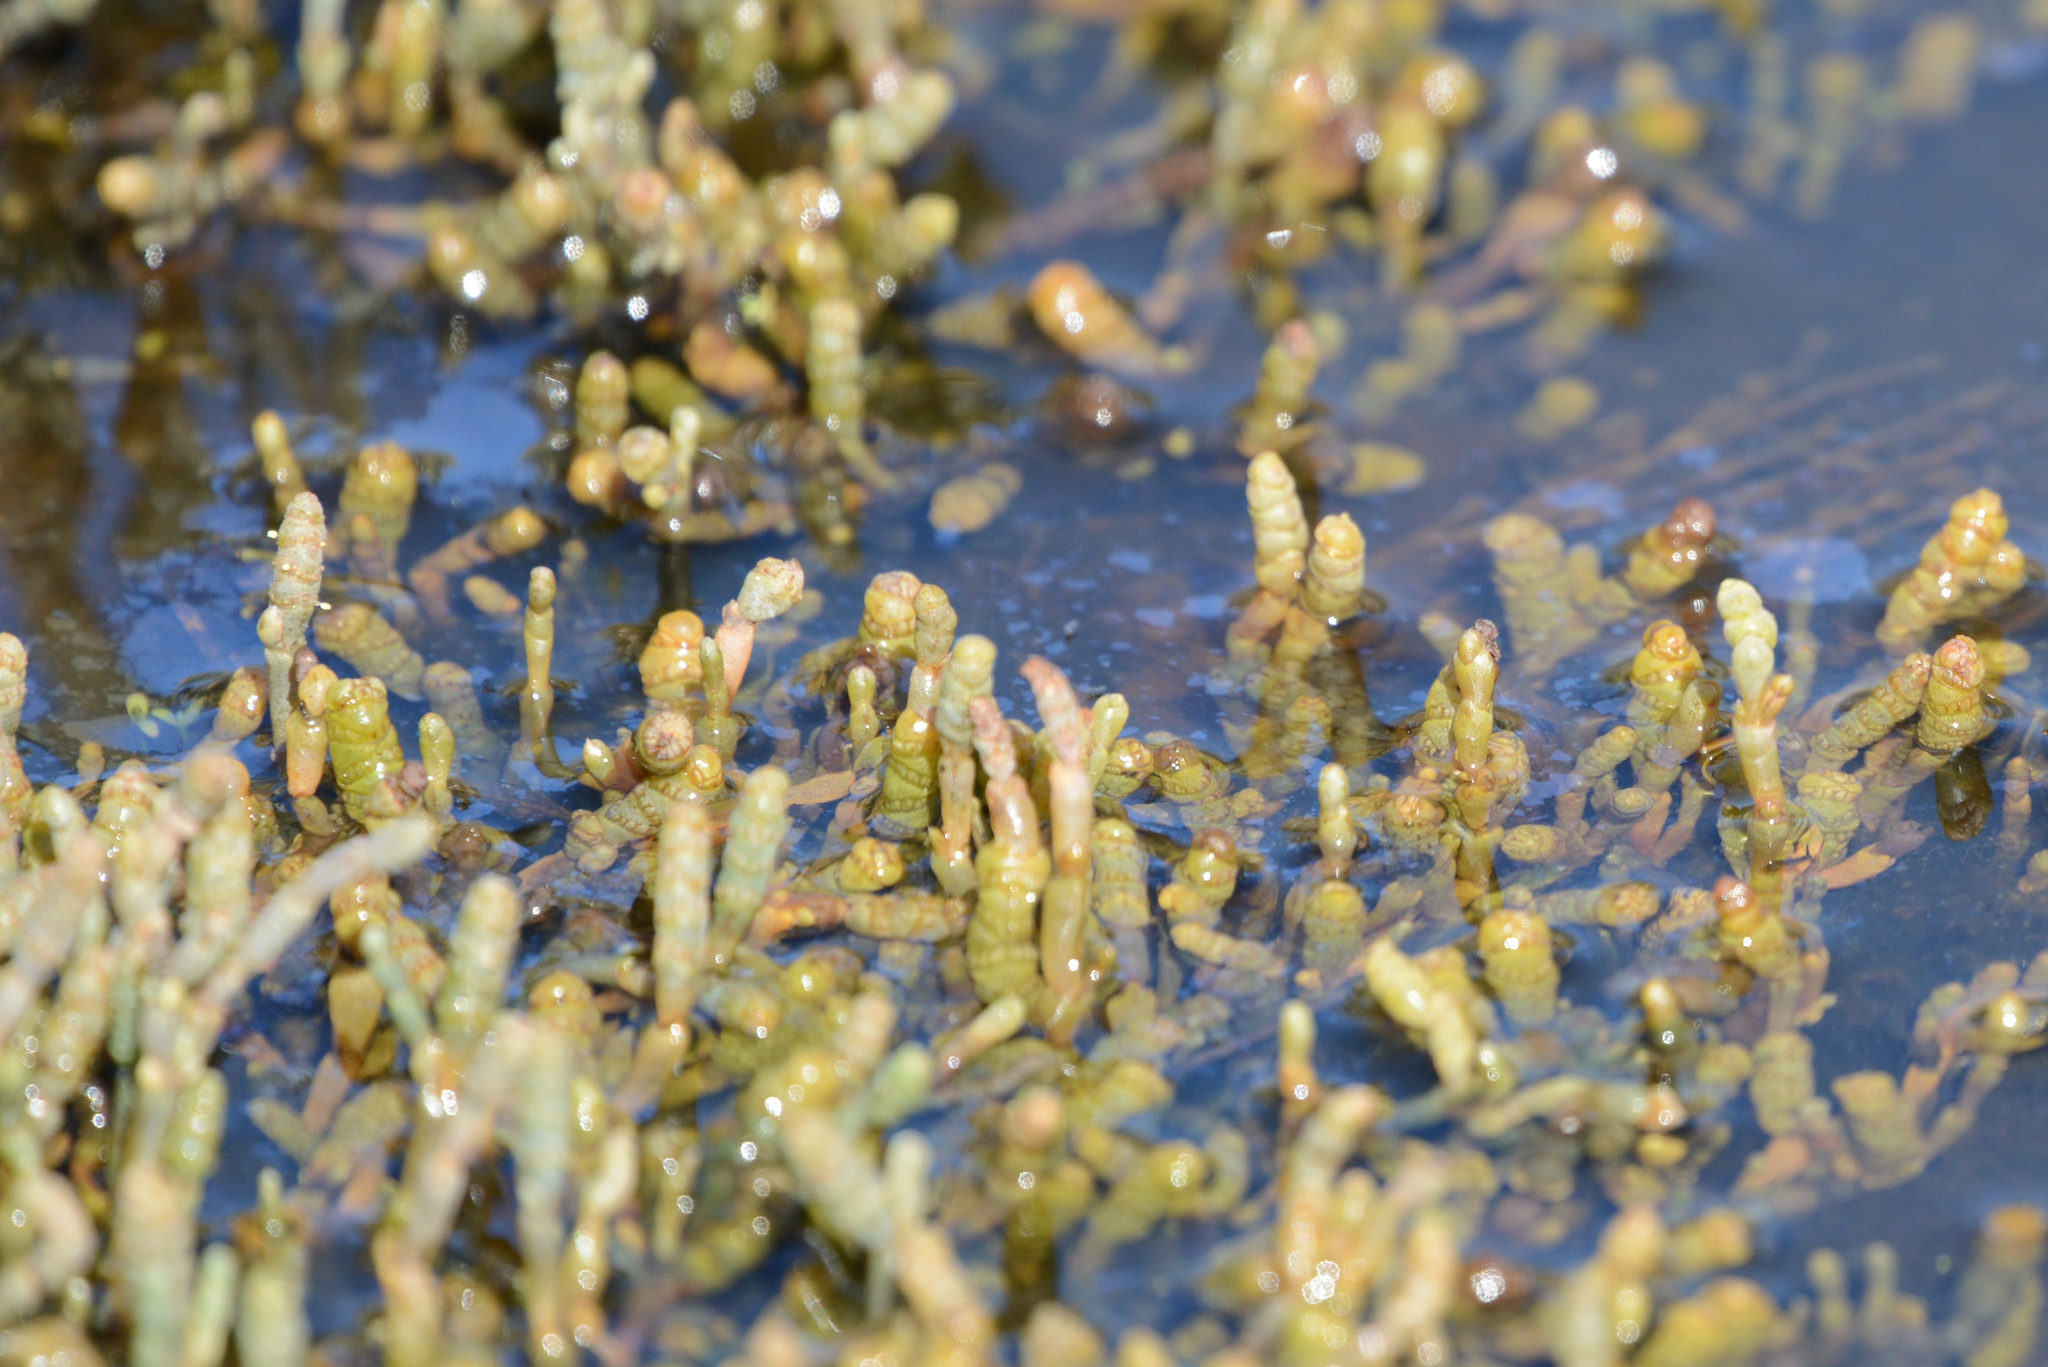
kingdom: Plantae
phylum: Tracheophyta
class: Magnoliopsida
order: Caryophyllales
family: Amaranthaceae
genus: Salicornia
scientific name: Salicornia quinqueflora
